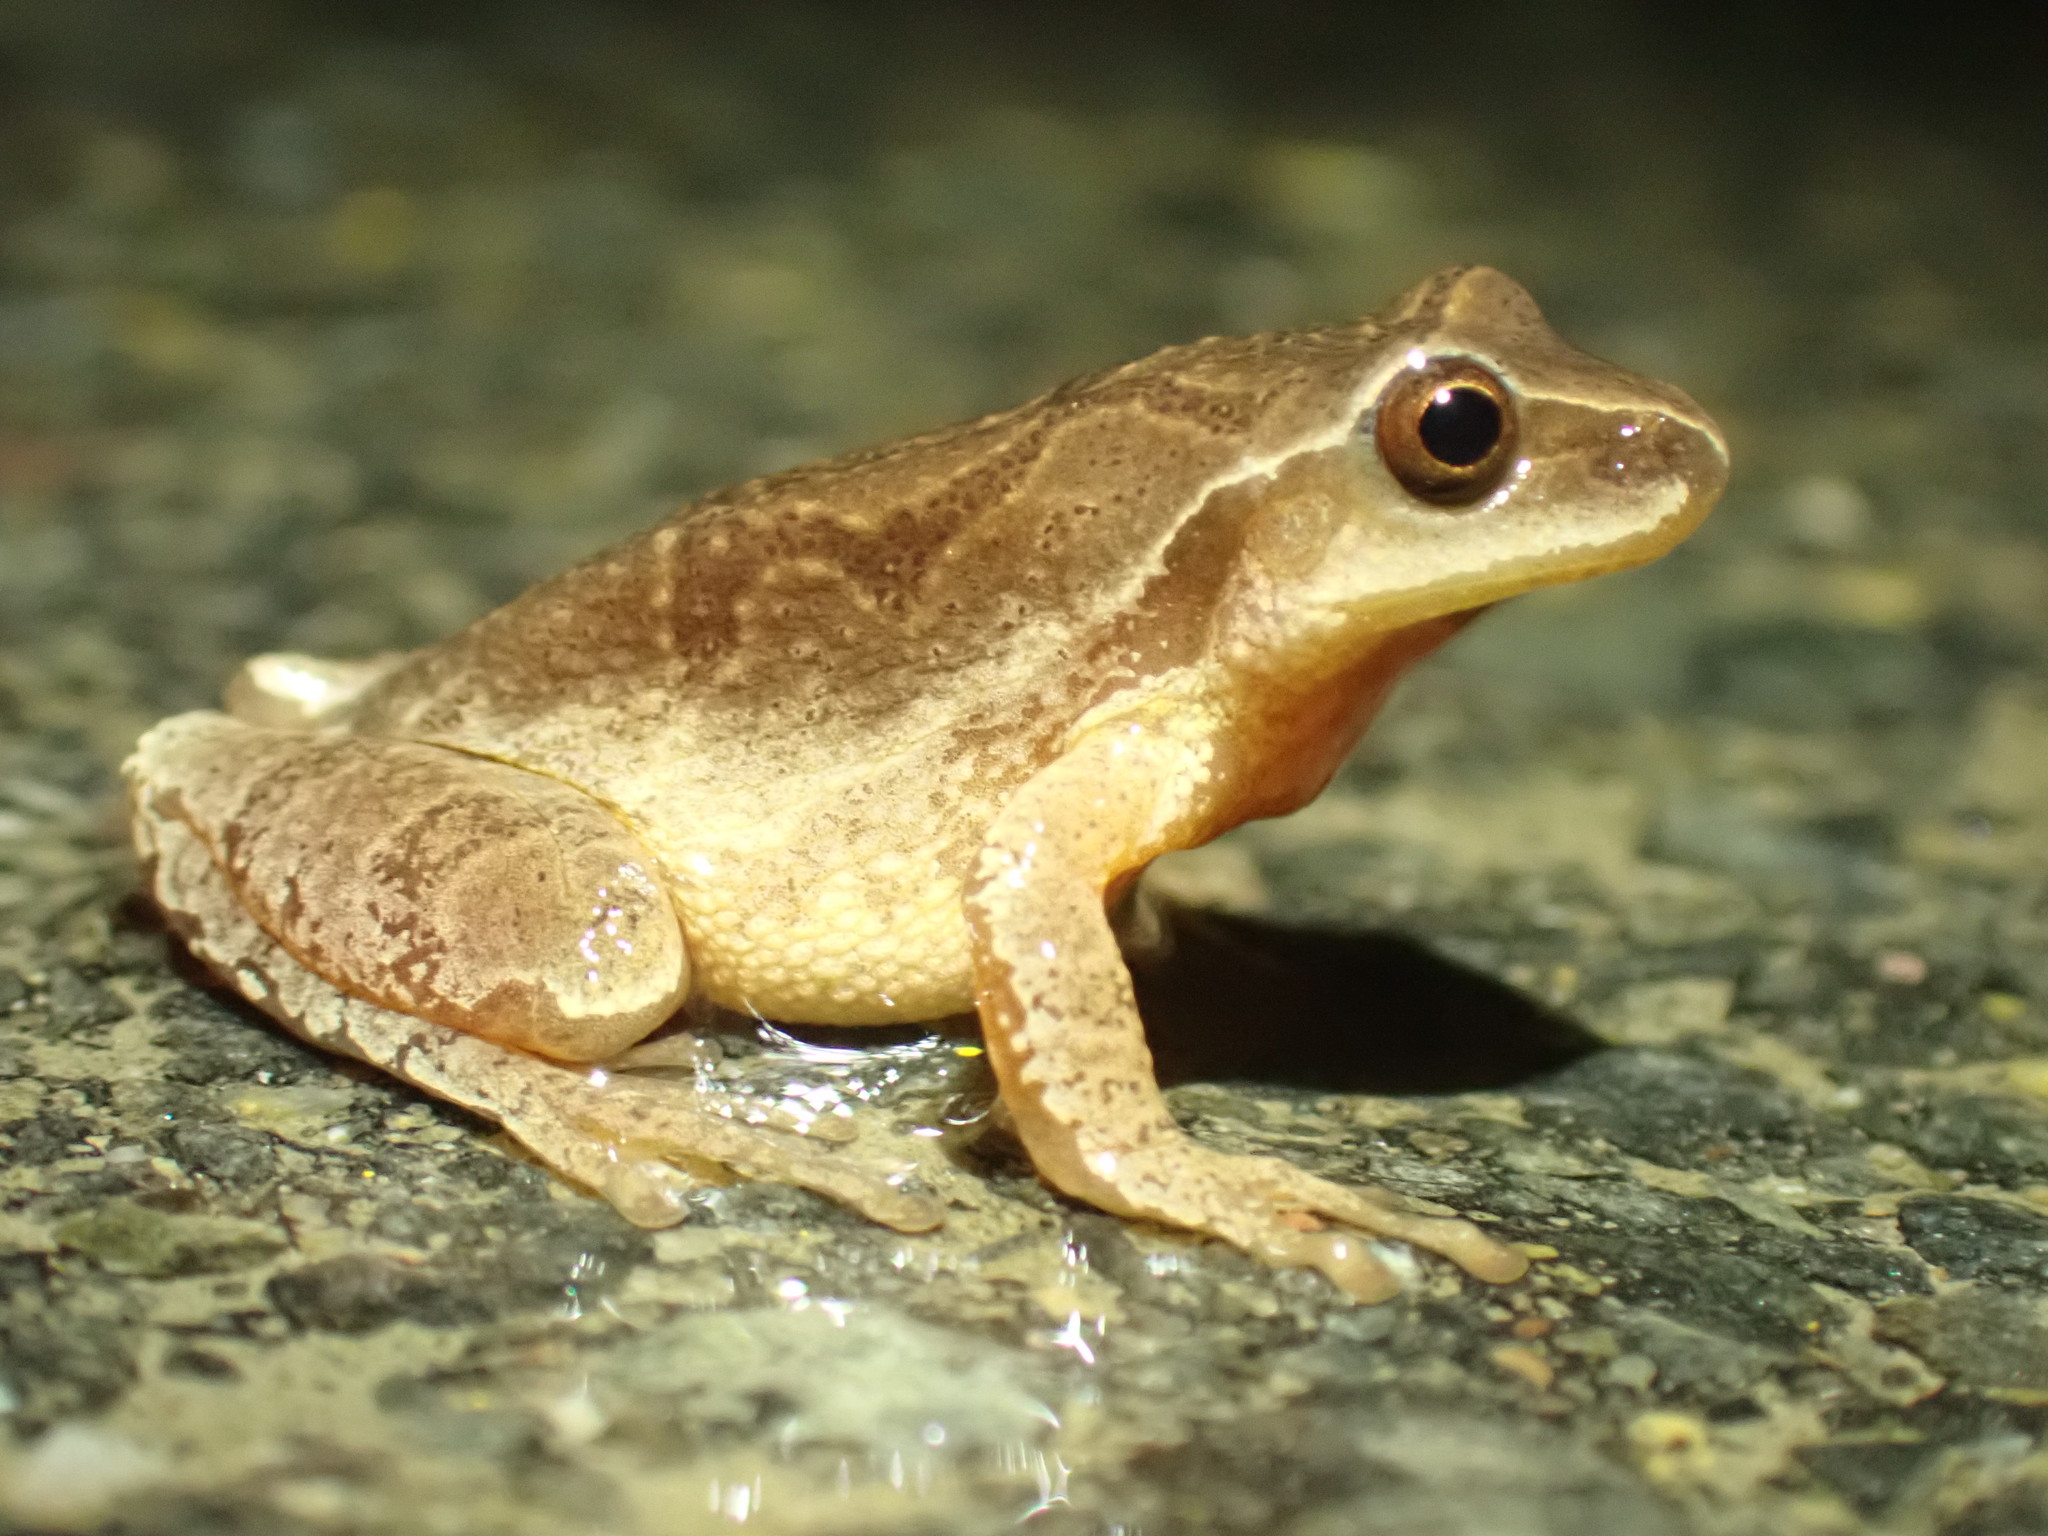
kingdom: Animalia
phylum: Chordata
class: Amphibia
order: Anura
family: Hylidae
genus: Pseudacris
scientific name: Pseudacris crucifer
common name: Spring peeper
